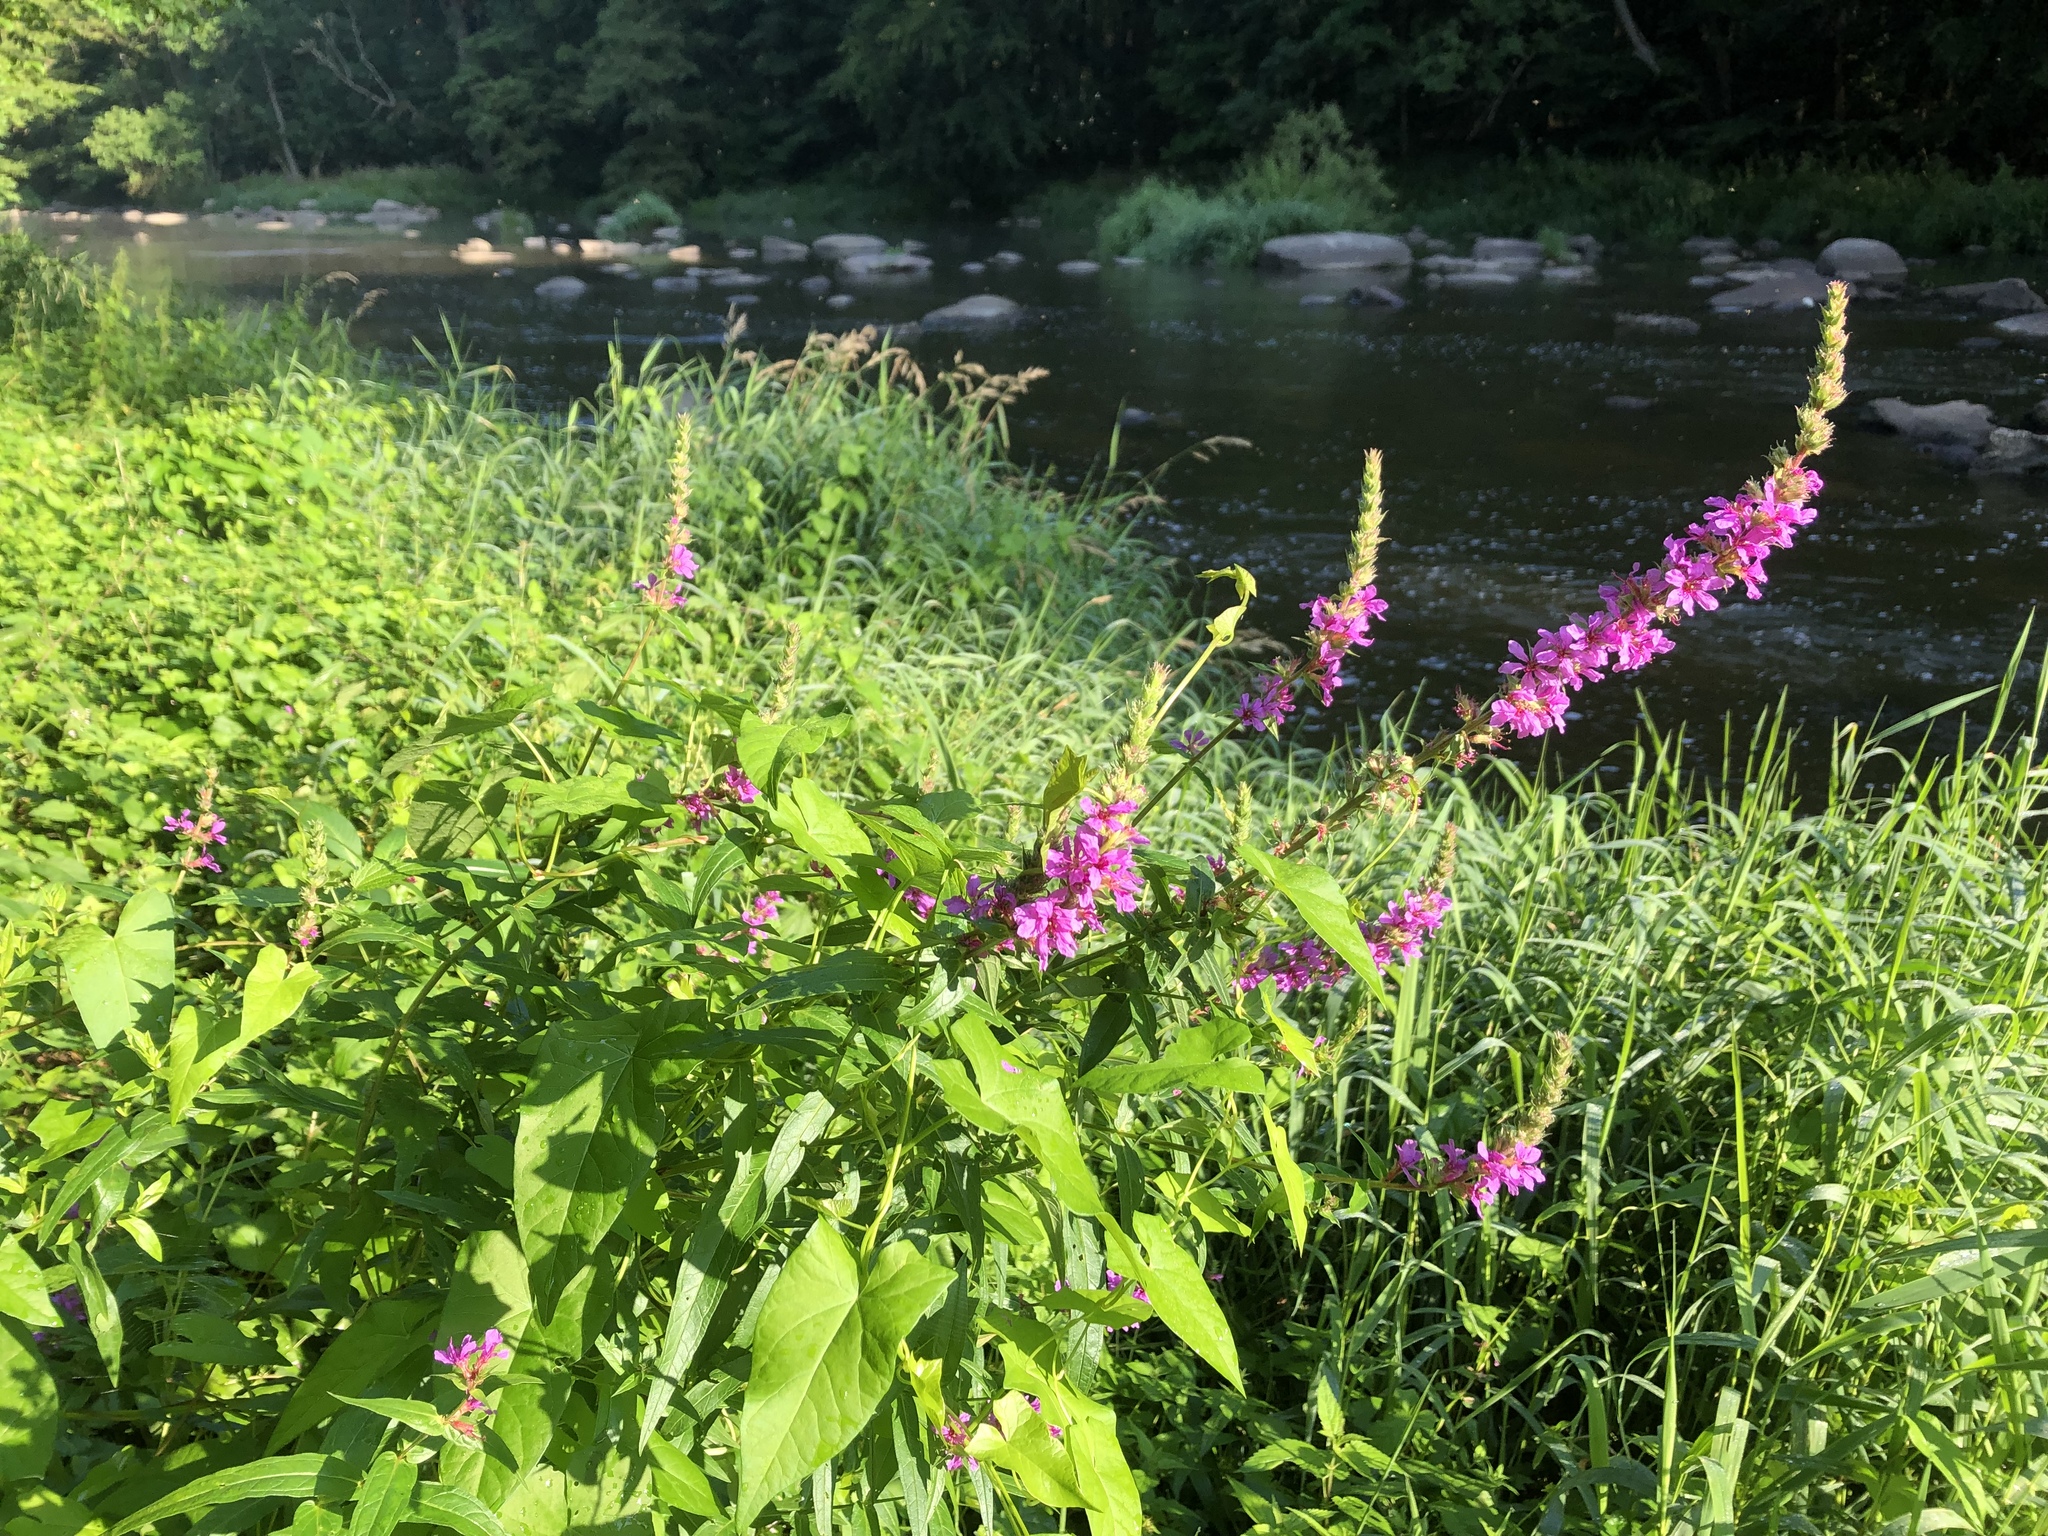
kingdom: Plantae
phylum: Tracheophyta
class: Magnoliopsida
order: Myrtales
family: Lythraceae
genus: Lythrum
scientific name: Lythrum salicaria
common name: Purple loosestrife
